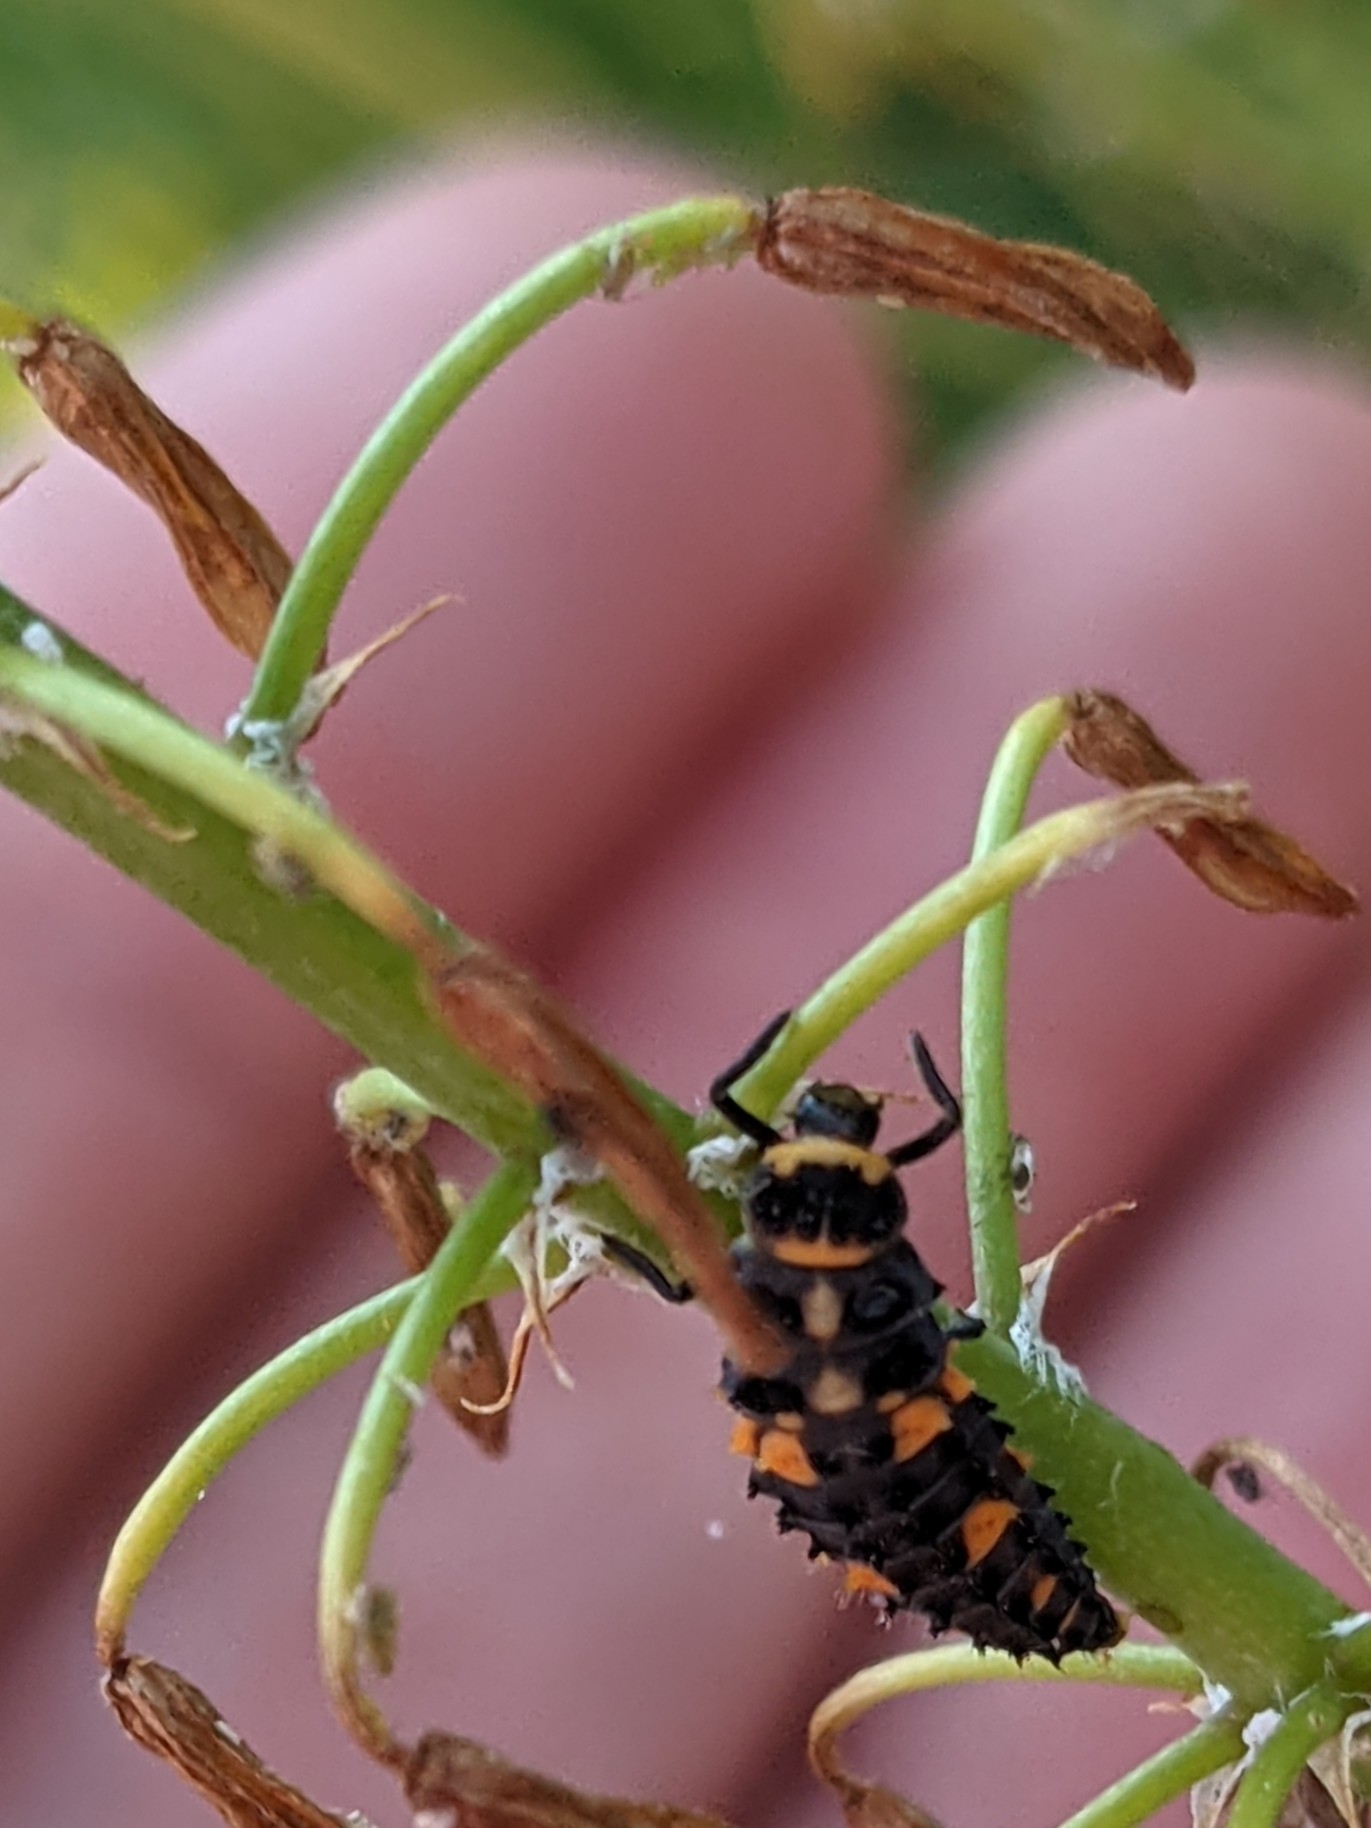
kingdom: Animalia
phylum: Arthropoda
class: Insecta
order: Coleoptera
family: Coccinellidae
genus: Hippodamia
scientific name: Hippodamia convergens
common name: Convergent lady beetle
